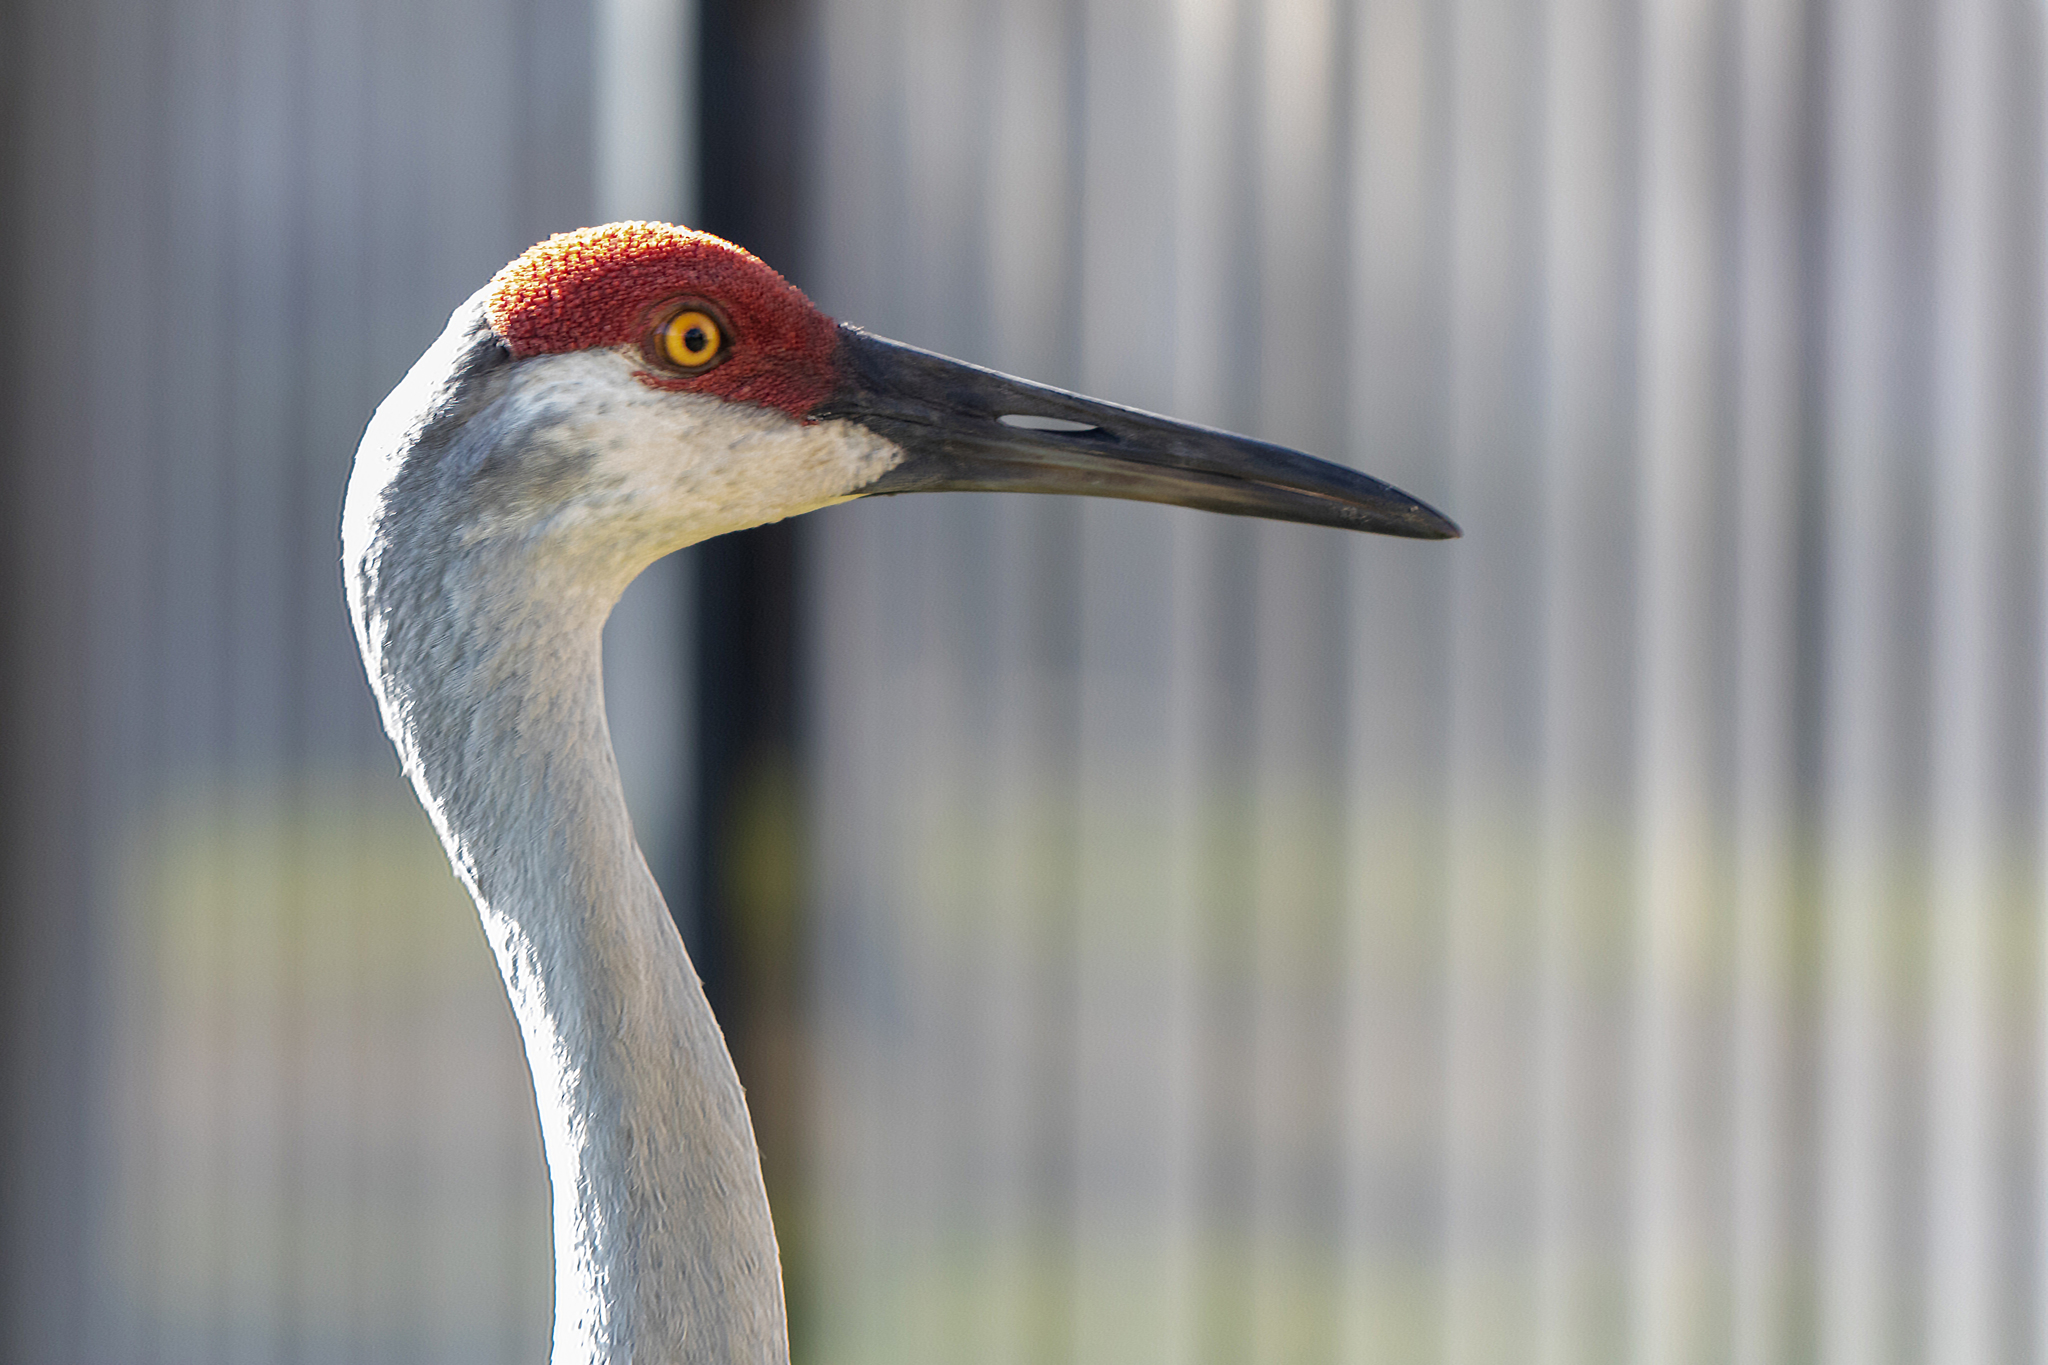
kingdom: Animalia
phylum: Chordata
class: Aves
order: Gruiformes
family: Gruidae
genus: Grus
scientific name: Grus canadensis
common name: Sandhill crane
